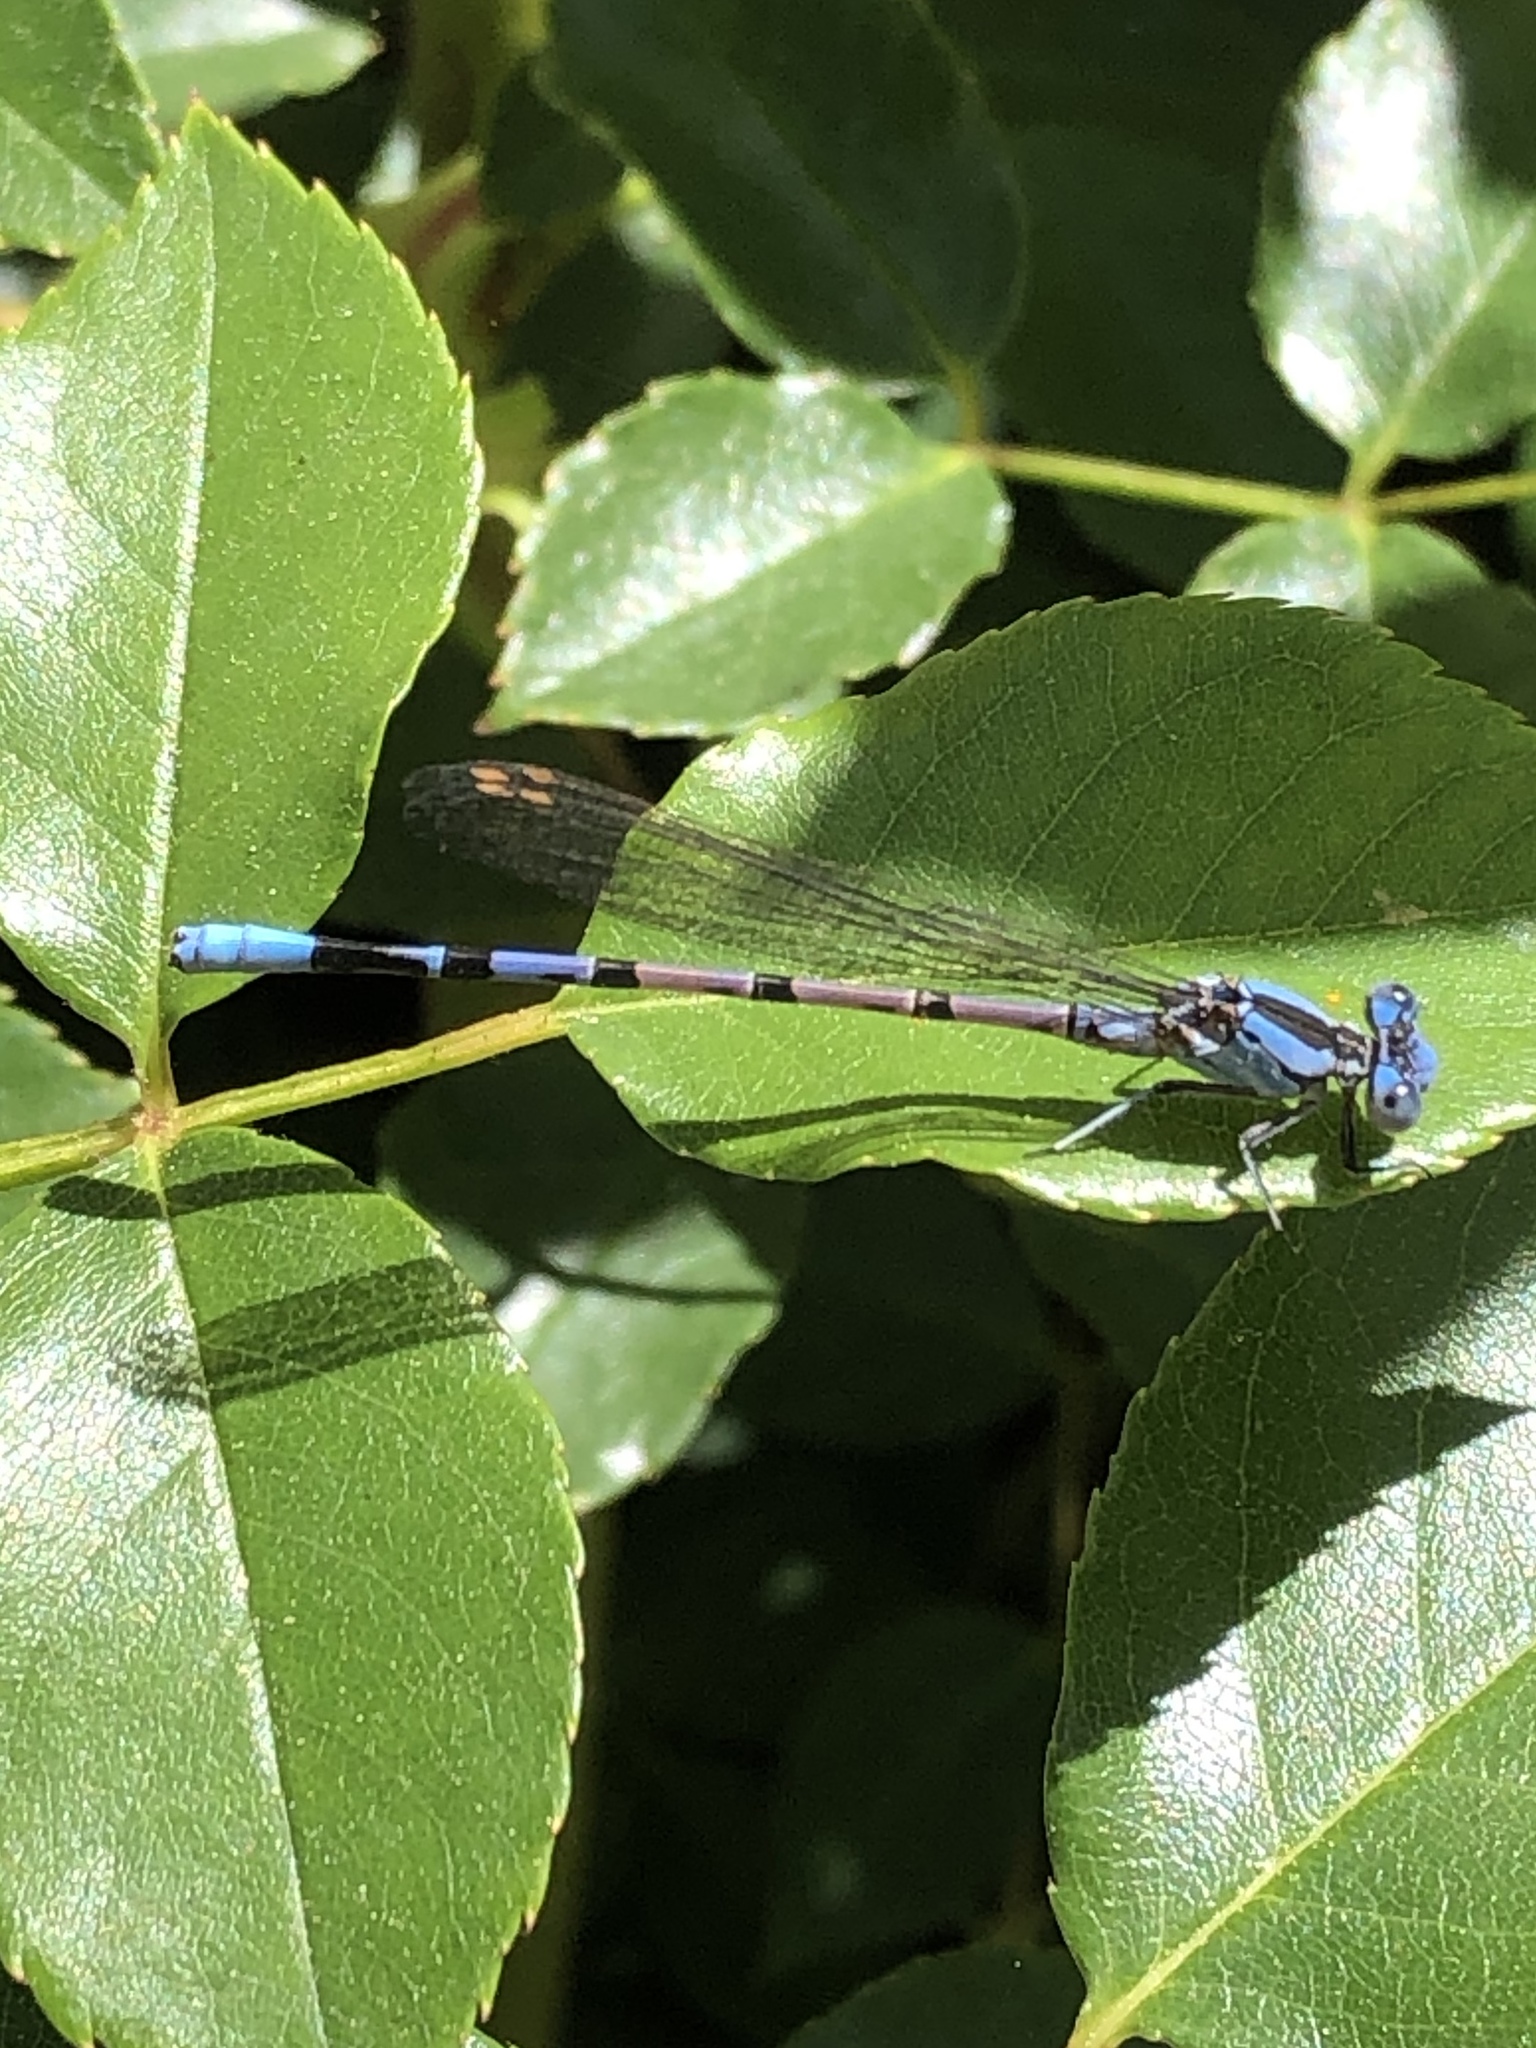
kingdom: Animalia
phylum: Arthropoda
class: Insecta
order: Odonata
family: Coenagrionidae
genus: Argia
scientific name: Argia vivida
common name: Vivid dancer
